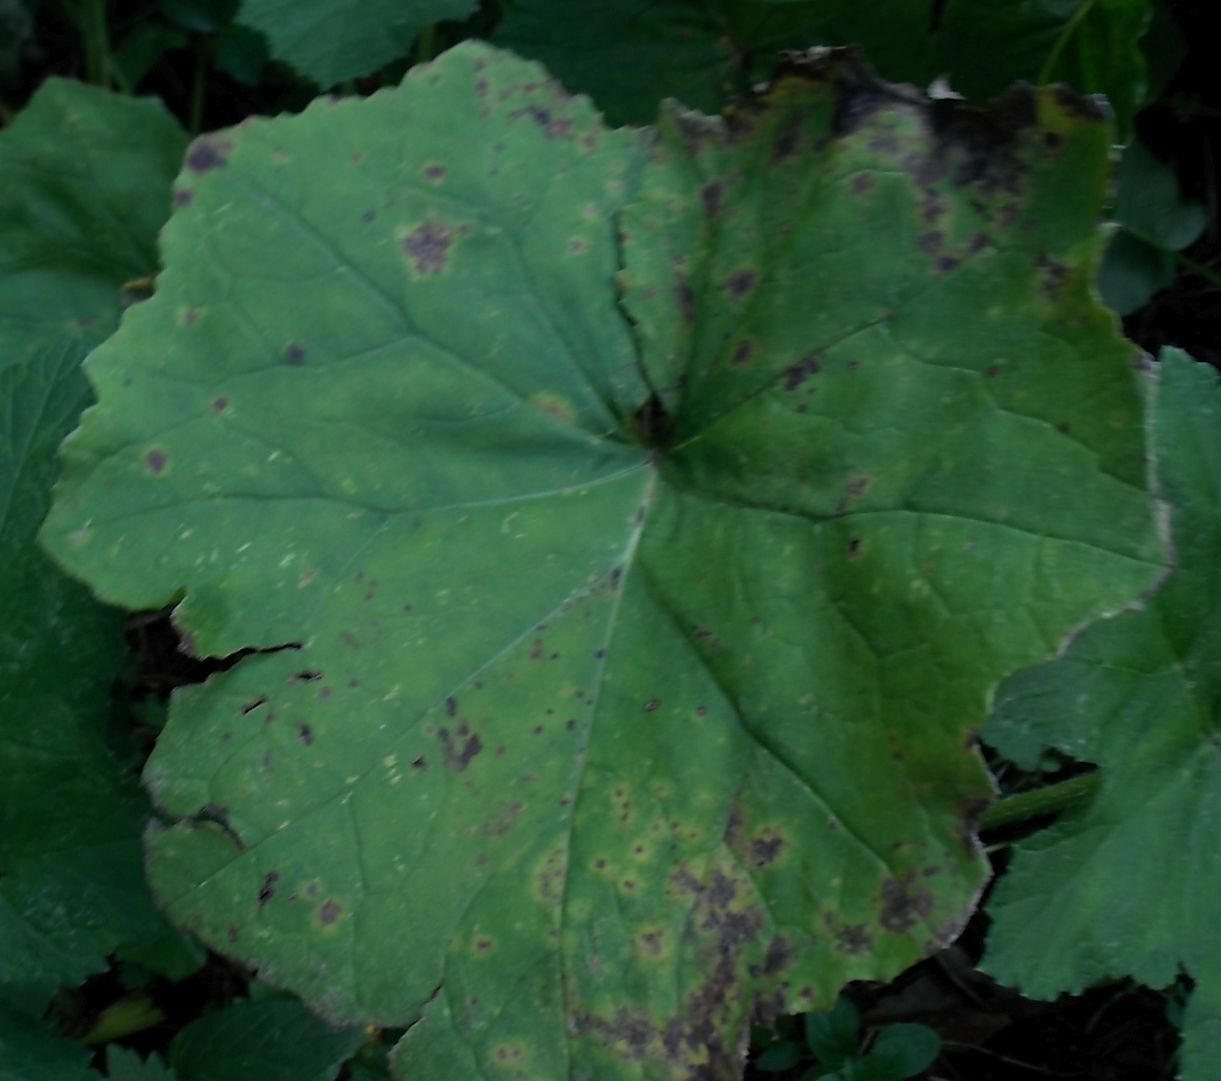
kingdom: Plantae
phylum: Tracheophyta
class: Magnoliopsida
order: Asterales
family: Asteraceae
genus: Tussilago
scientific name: Tussilago farfara
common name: Coltsfoot
